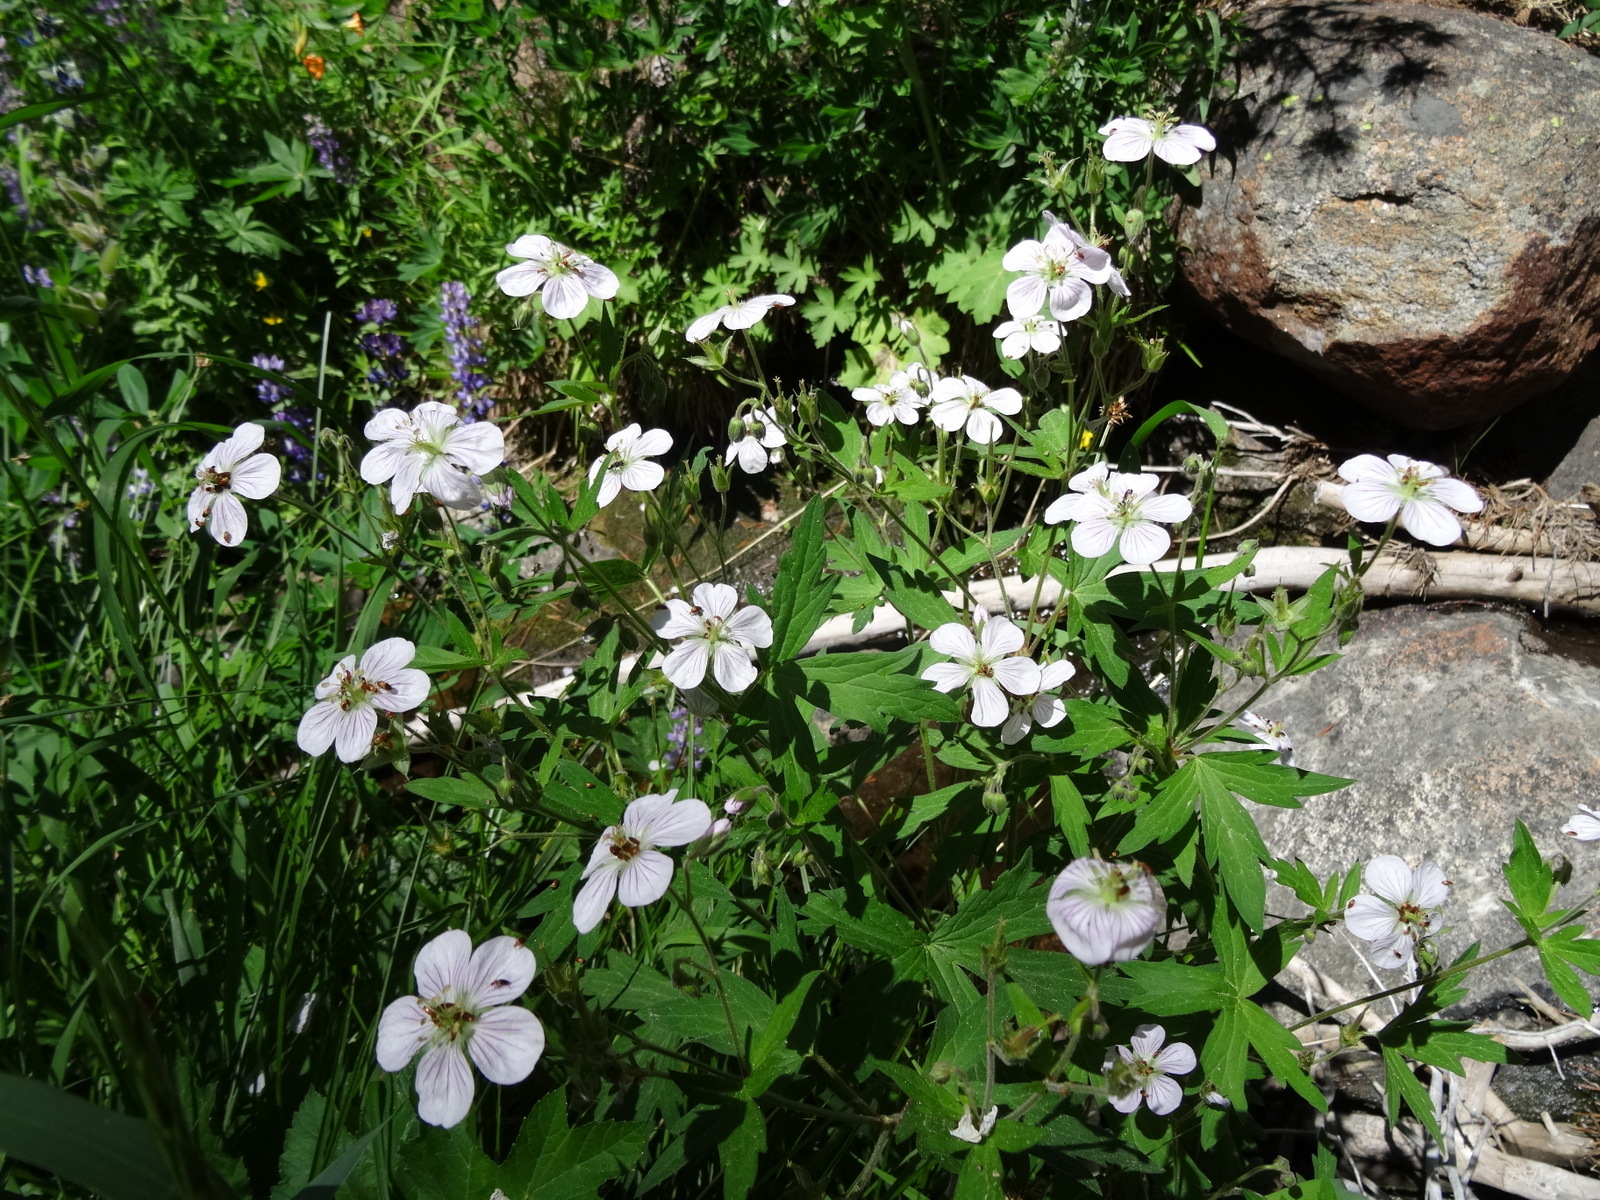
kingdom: Plantae
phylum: Tracheophyta
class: Magnoliopsida
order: Geraniales
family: Geraniaceae
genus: Geranium
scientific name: Geranium richardsonii
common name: Richardson's crane's-bill
